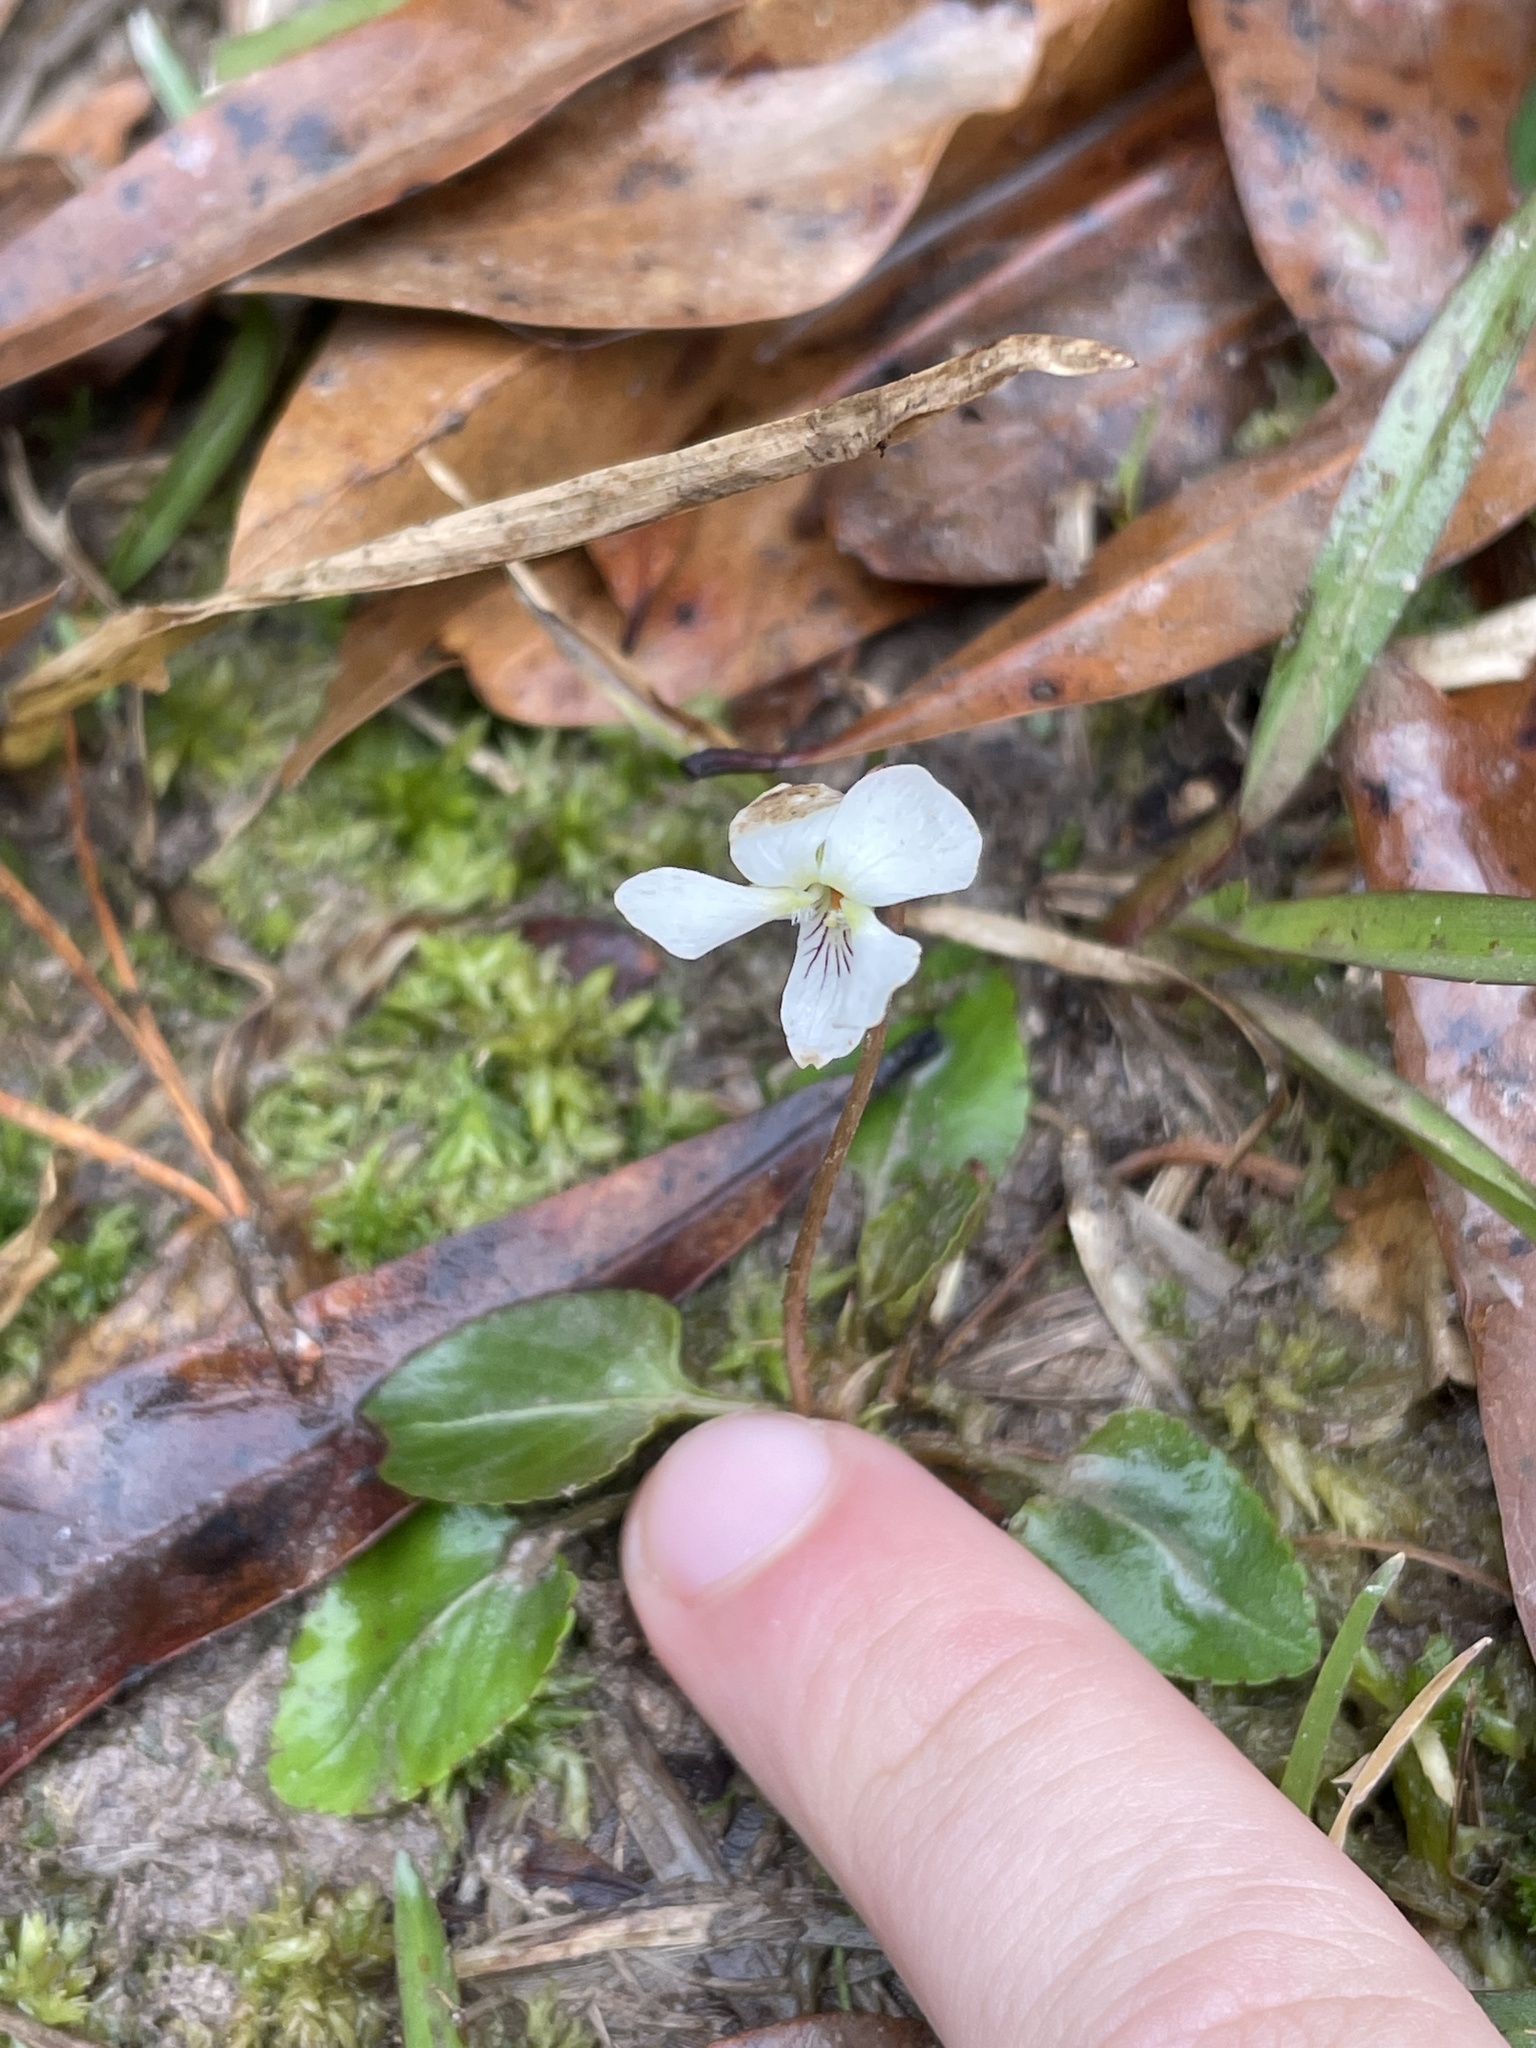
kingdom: Plantae
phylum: Tracheophyta
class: Magnoliopsida
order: Malpighiales
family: Violaceae
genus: Viola
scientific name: Viola primulifolia
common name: Primrose-leaf violet
